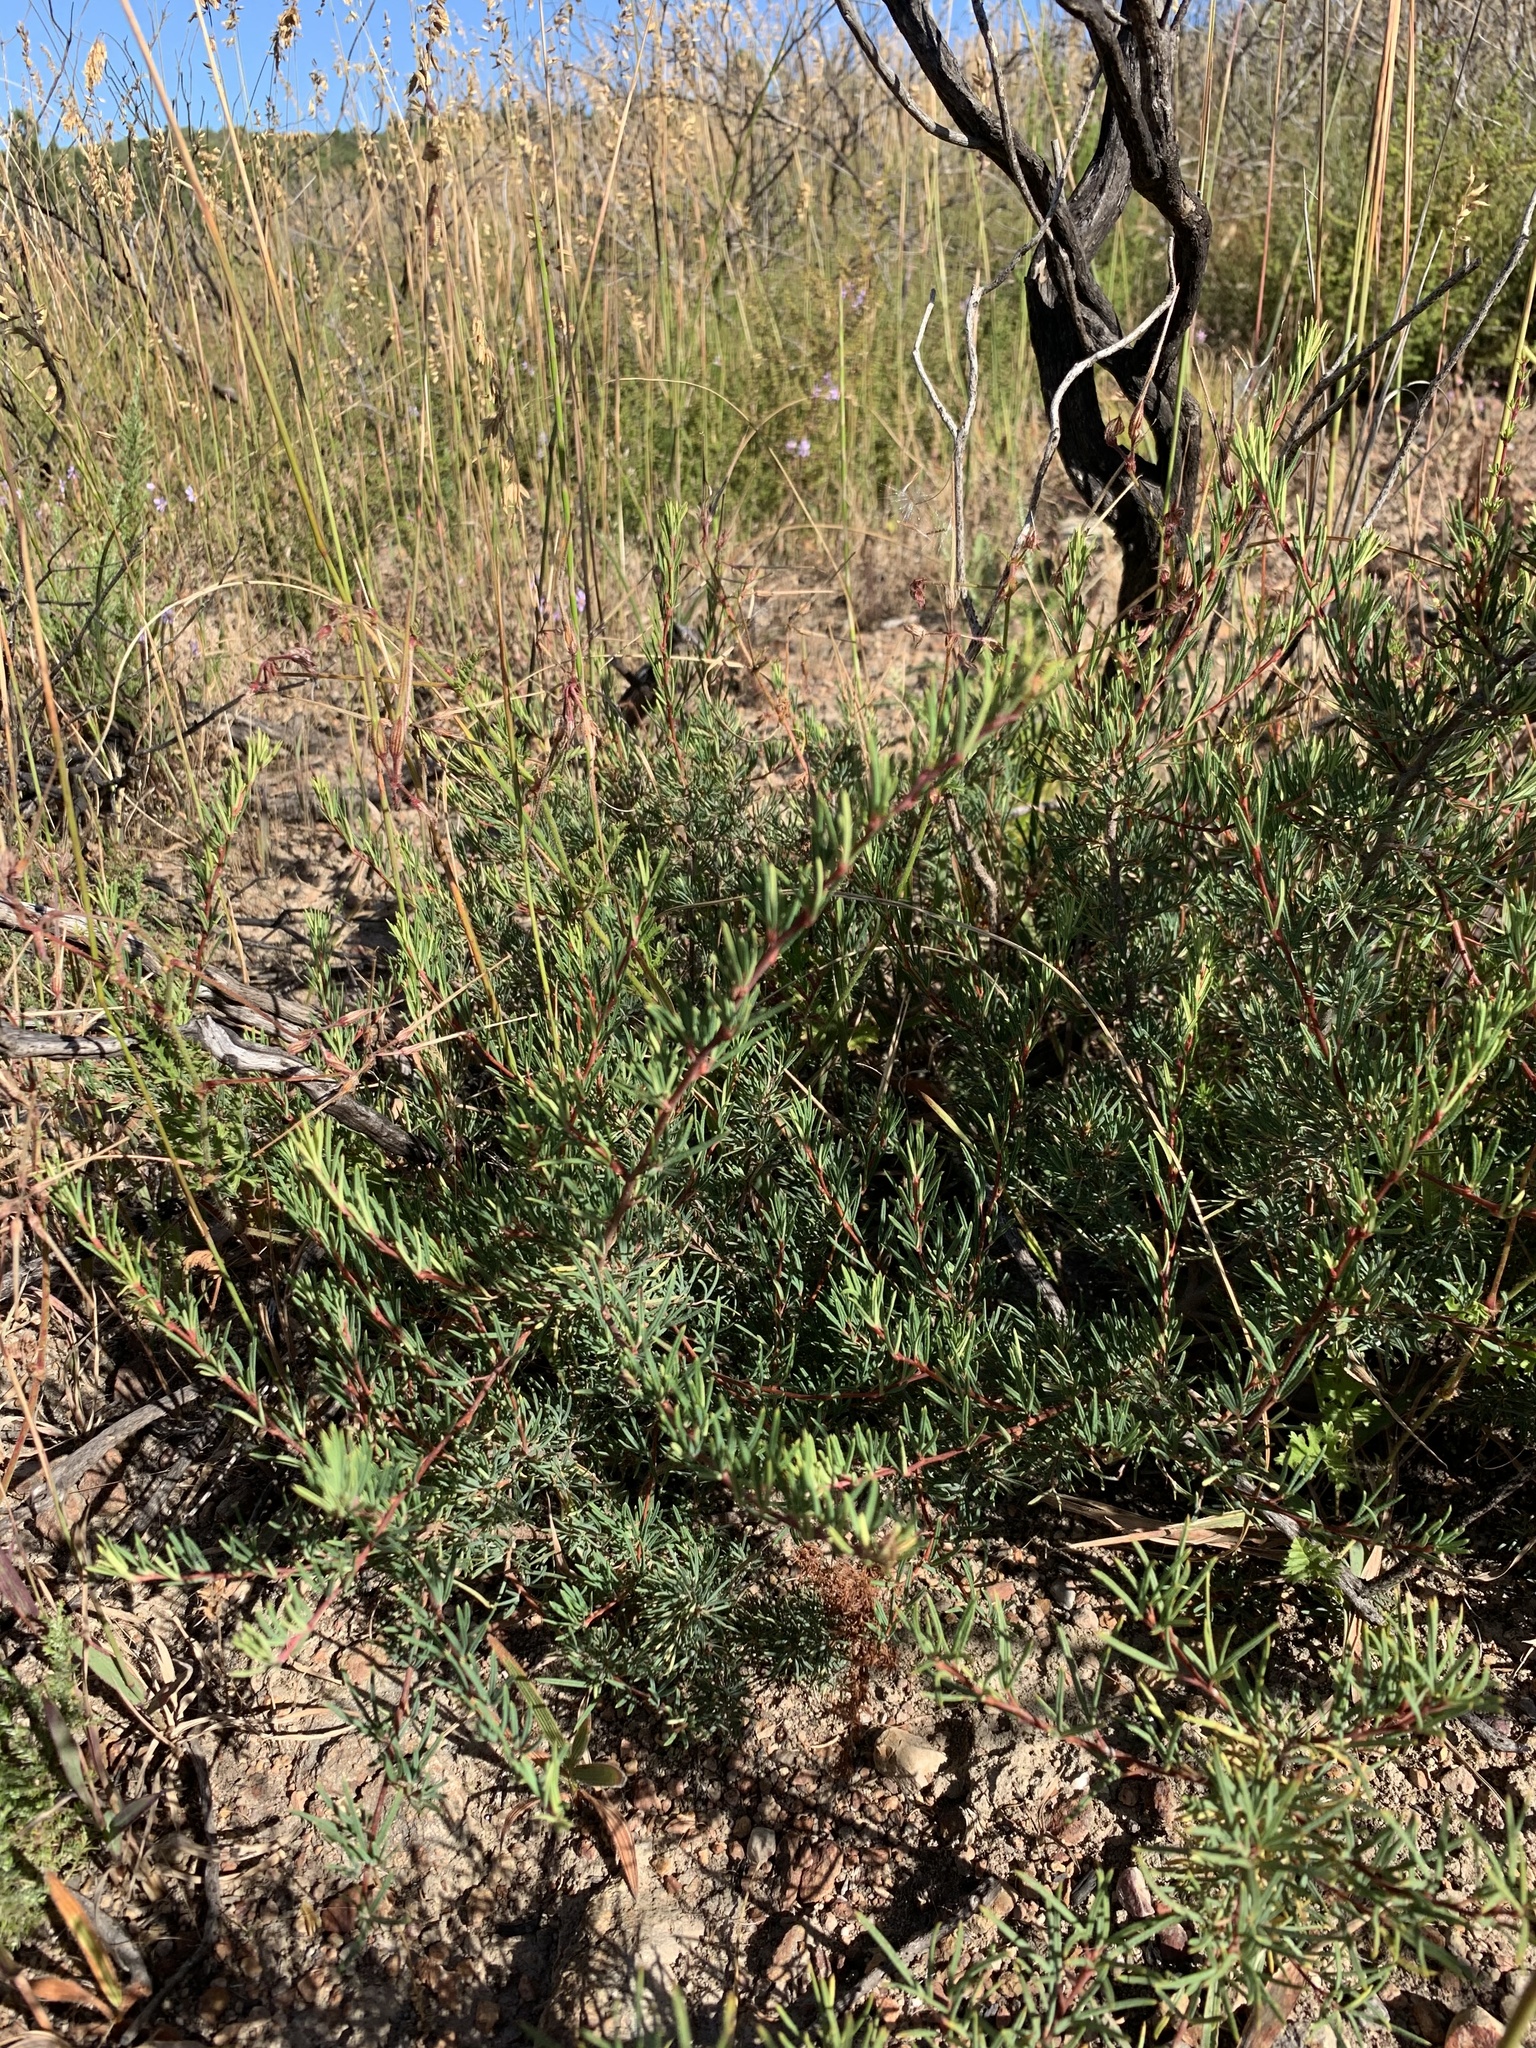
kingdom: Plantae
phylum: Tracheophyta
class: Magnoliopsida
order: Sapindales
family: Anacardiaceae
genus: Searsia
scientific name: Searsia rosmarinifolia
